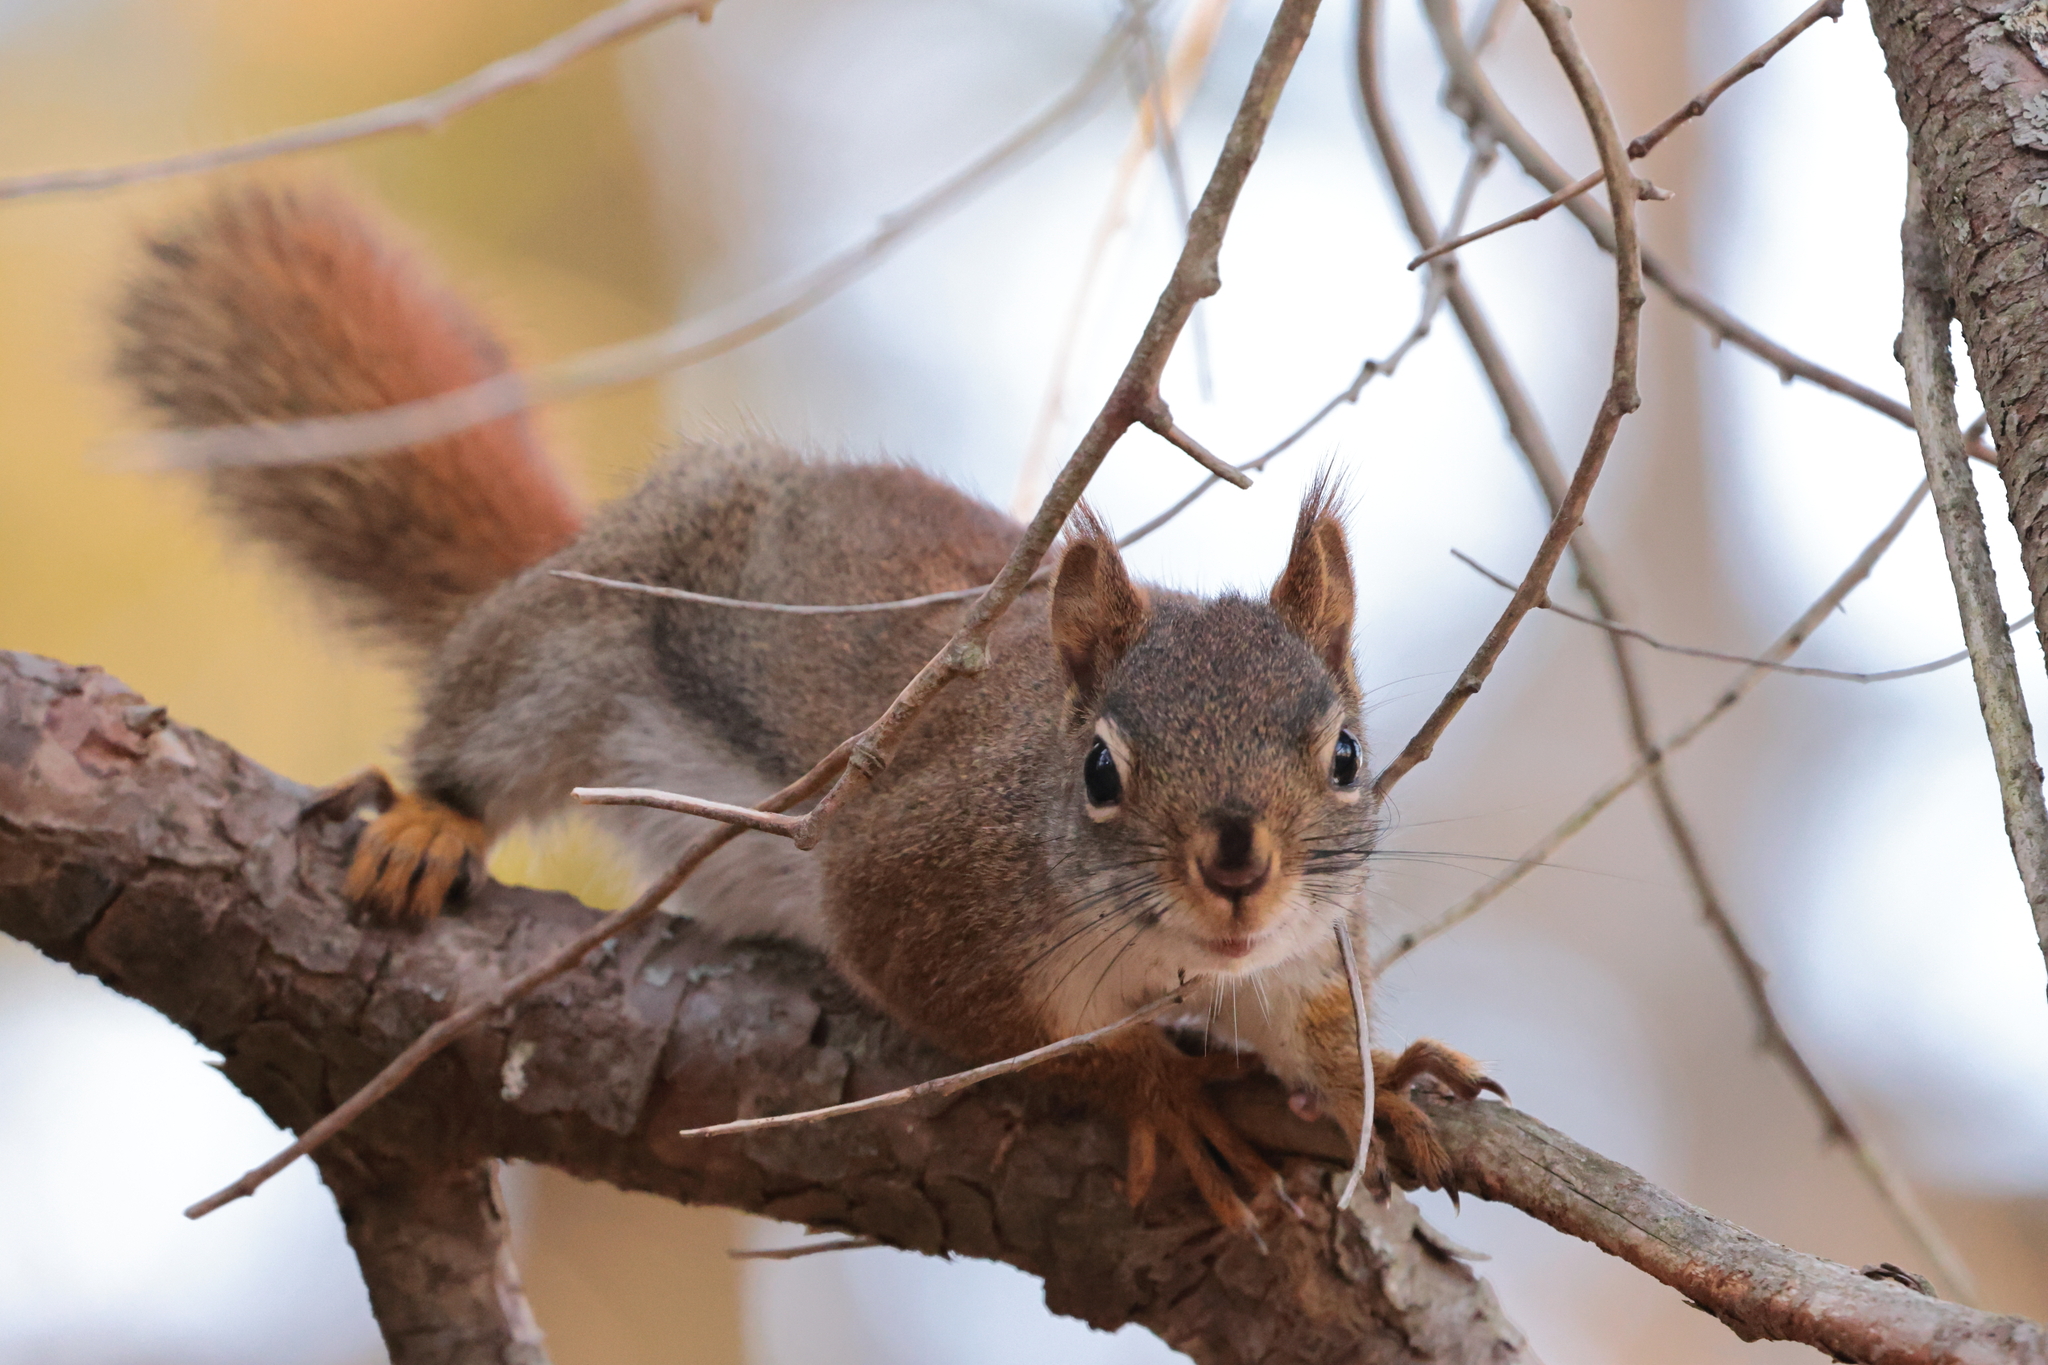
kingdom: Animalia
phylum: Chordata
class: Mammalia
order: Rodentia
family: Sciuridae
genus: Tamiasciurus
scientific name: Tamiasciurus hudsonicus
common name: Red squirrel
